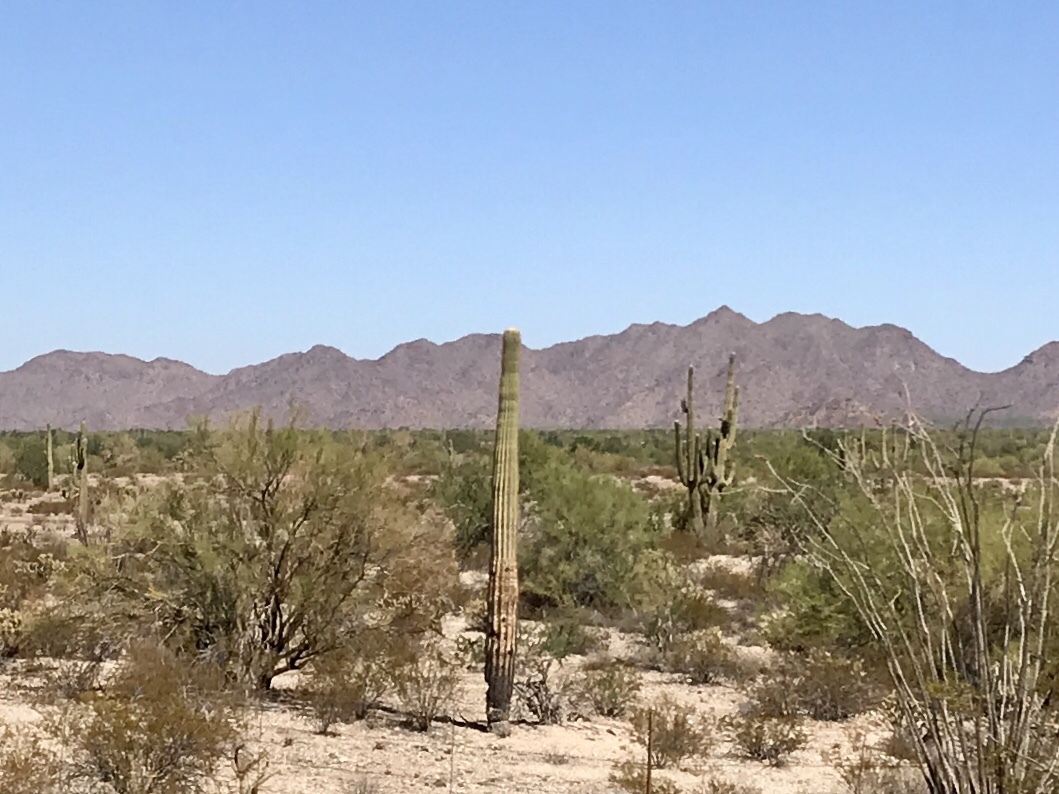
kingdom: Plantae
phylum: Tracheophyta
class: Magnoliopsida
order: Caryophyllales
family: Cactaceae
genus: Carnegiea
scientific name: Carnegiea gigantea
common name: Saguaro
